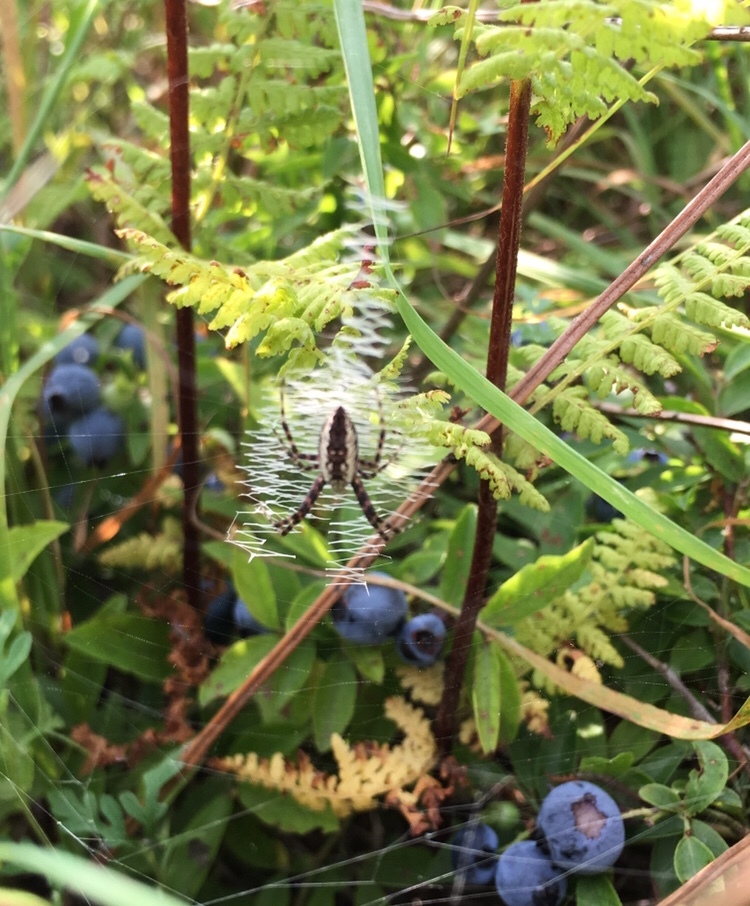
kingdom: Animalia
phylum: Arthropoda
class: Arachnida
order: Araneae
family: Araneidae
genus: Argiope
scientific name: Argiope aurantia
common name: Orb weavers
